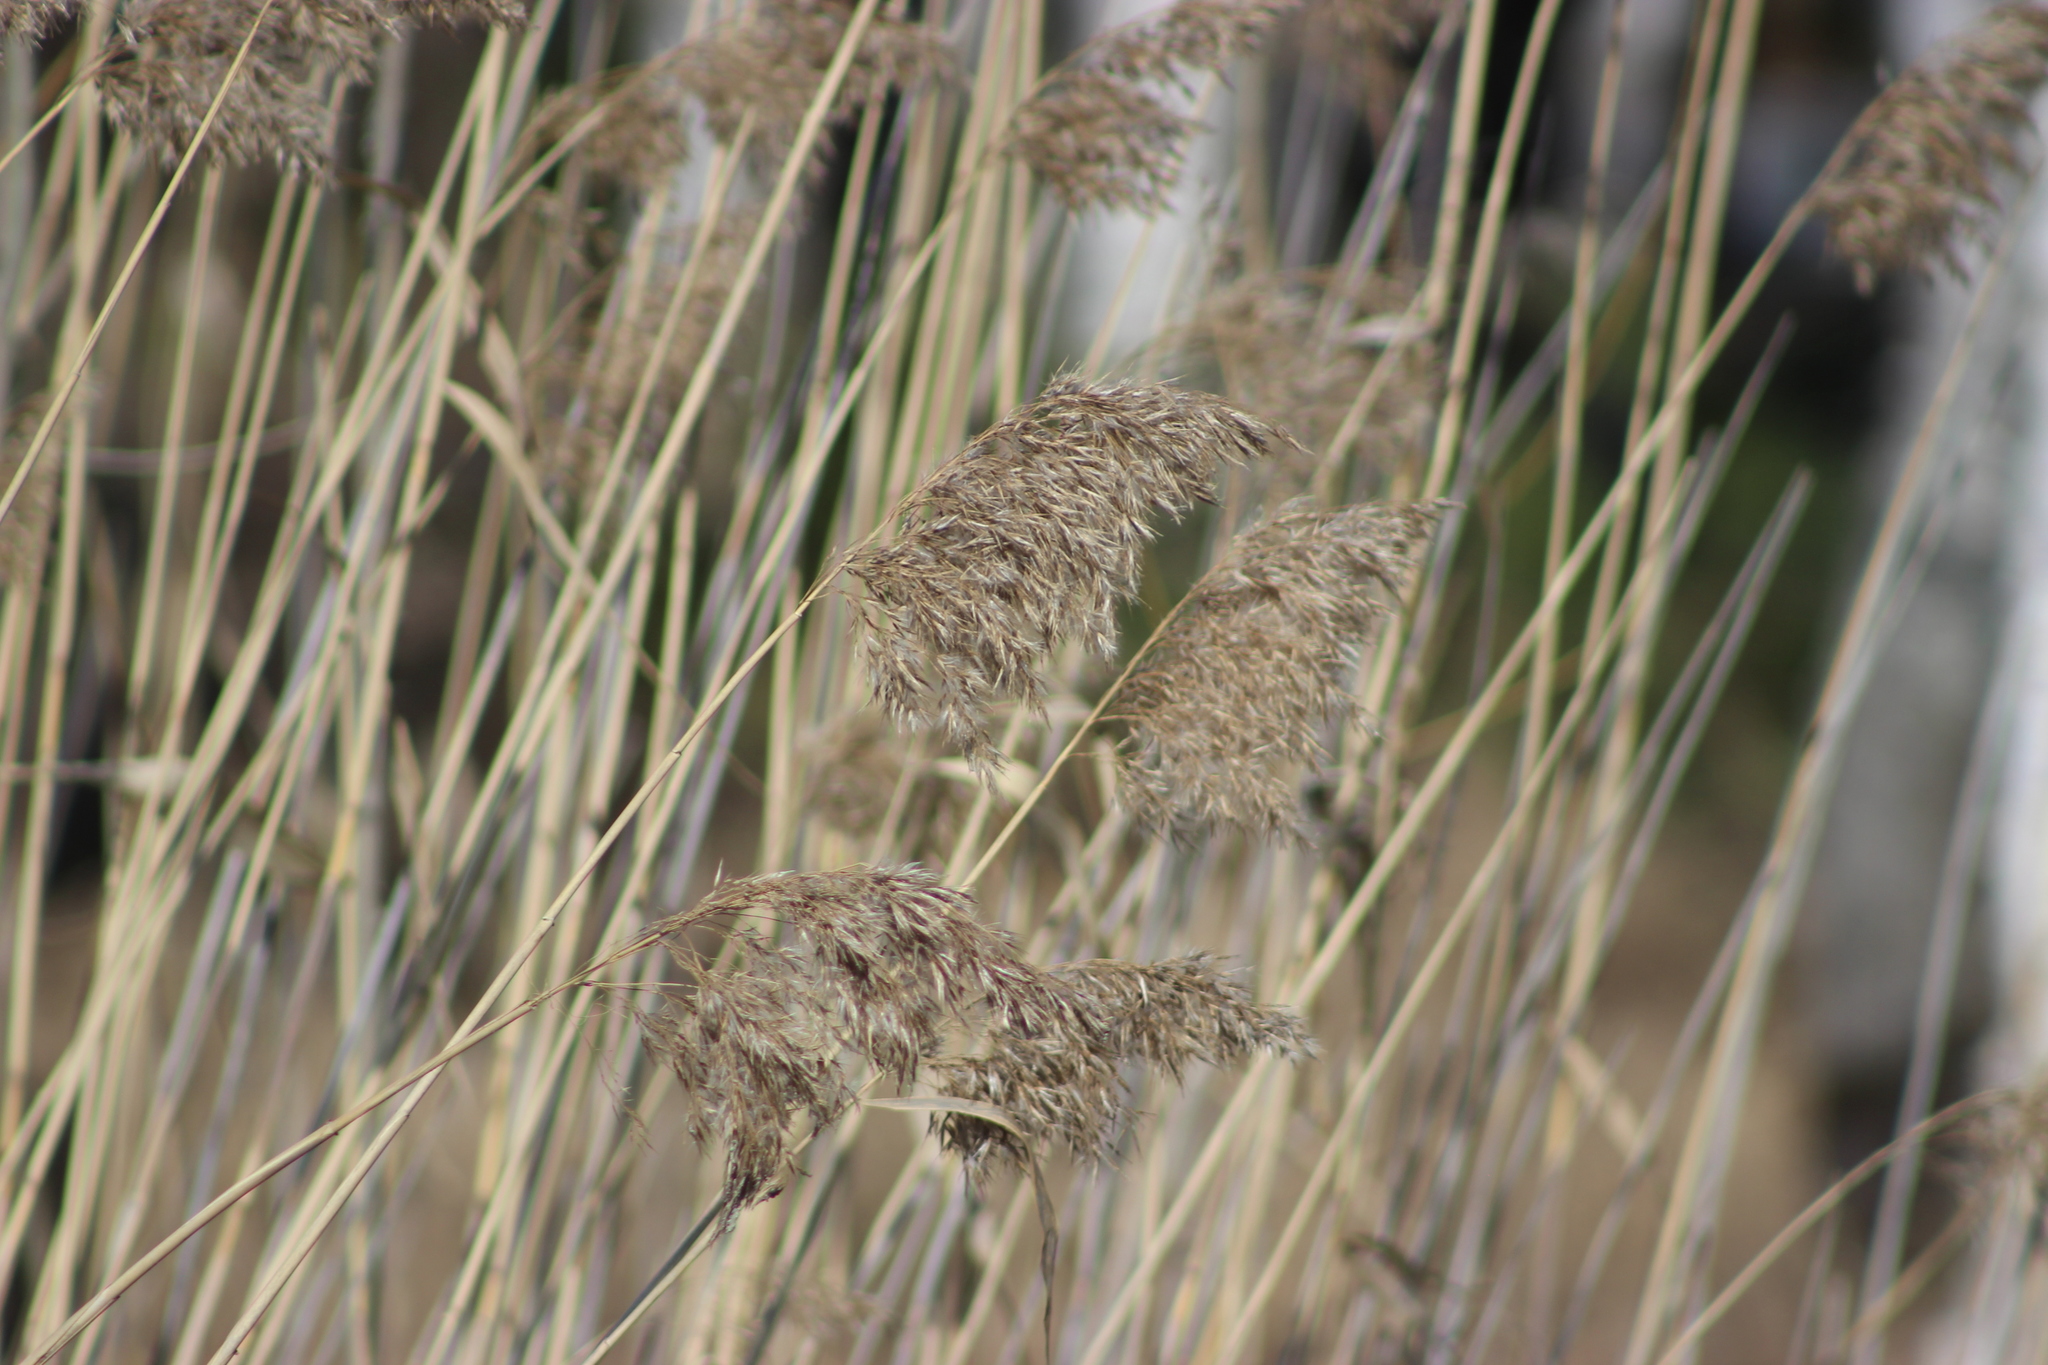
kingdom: Plantae
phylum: Tracheophyta
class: Liliopsida
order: Poales
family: Poaceae
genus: Phragmites
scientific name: Phragmites australis
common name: Common reed
